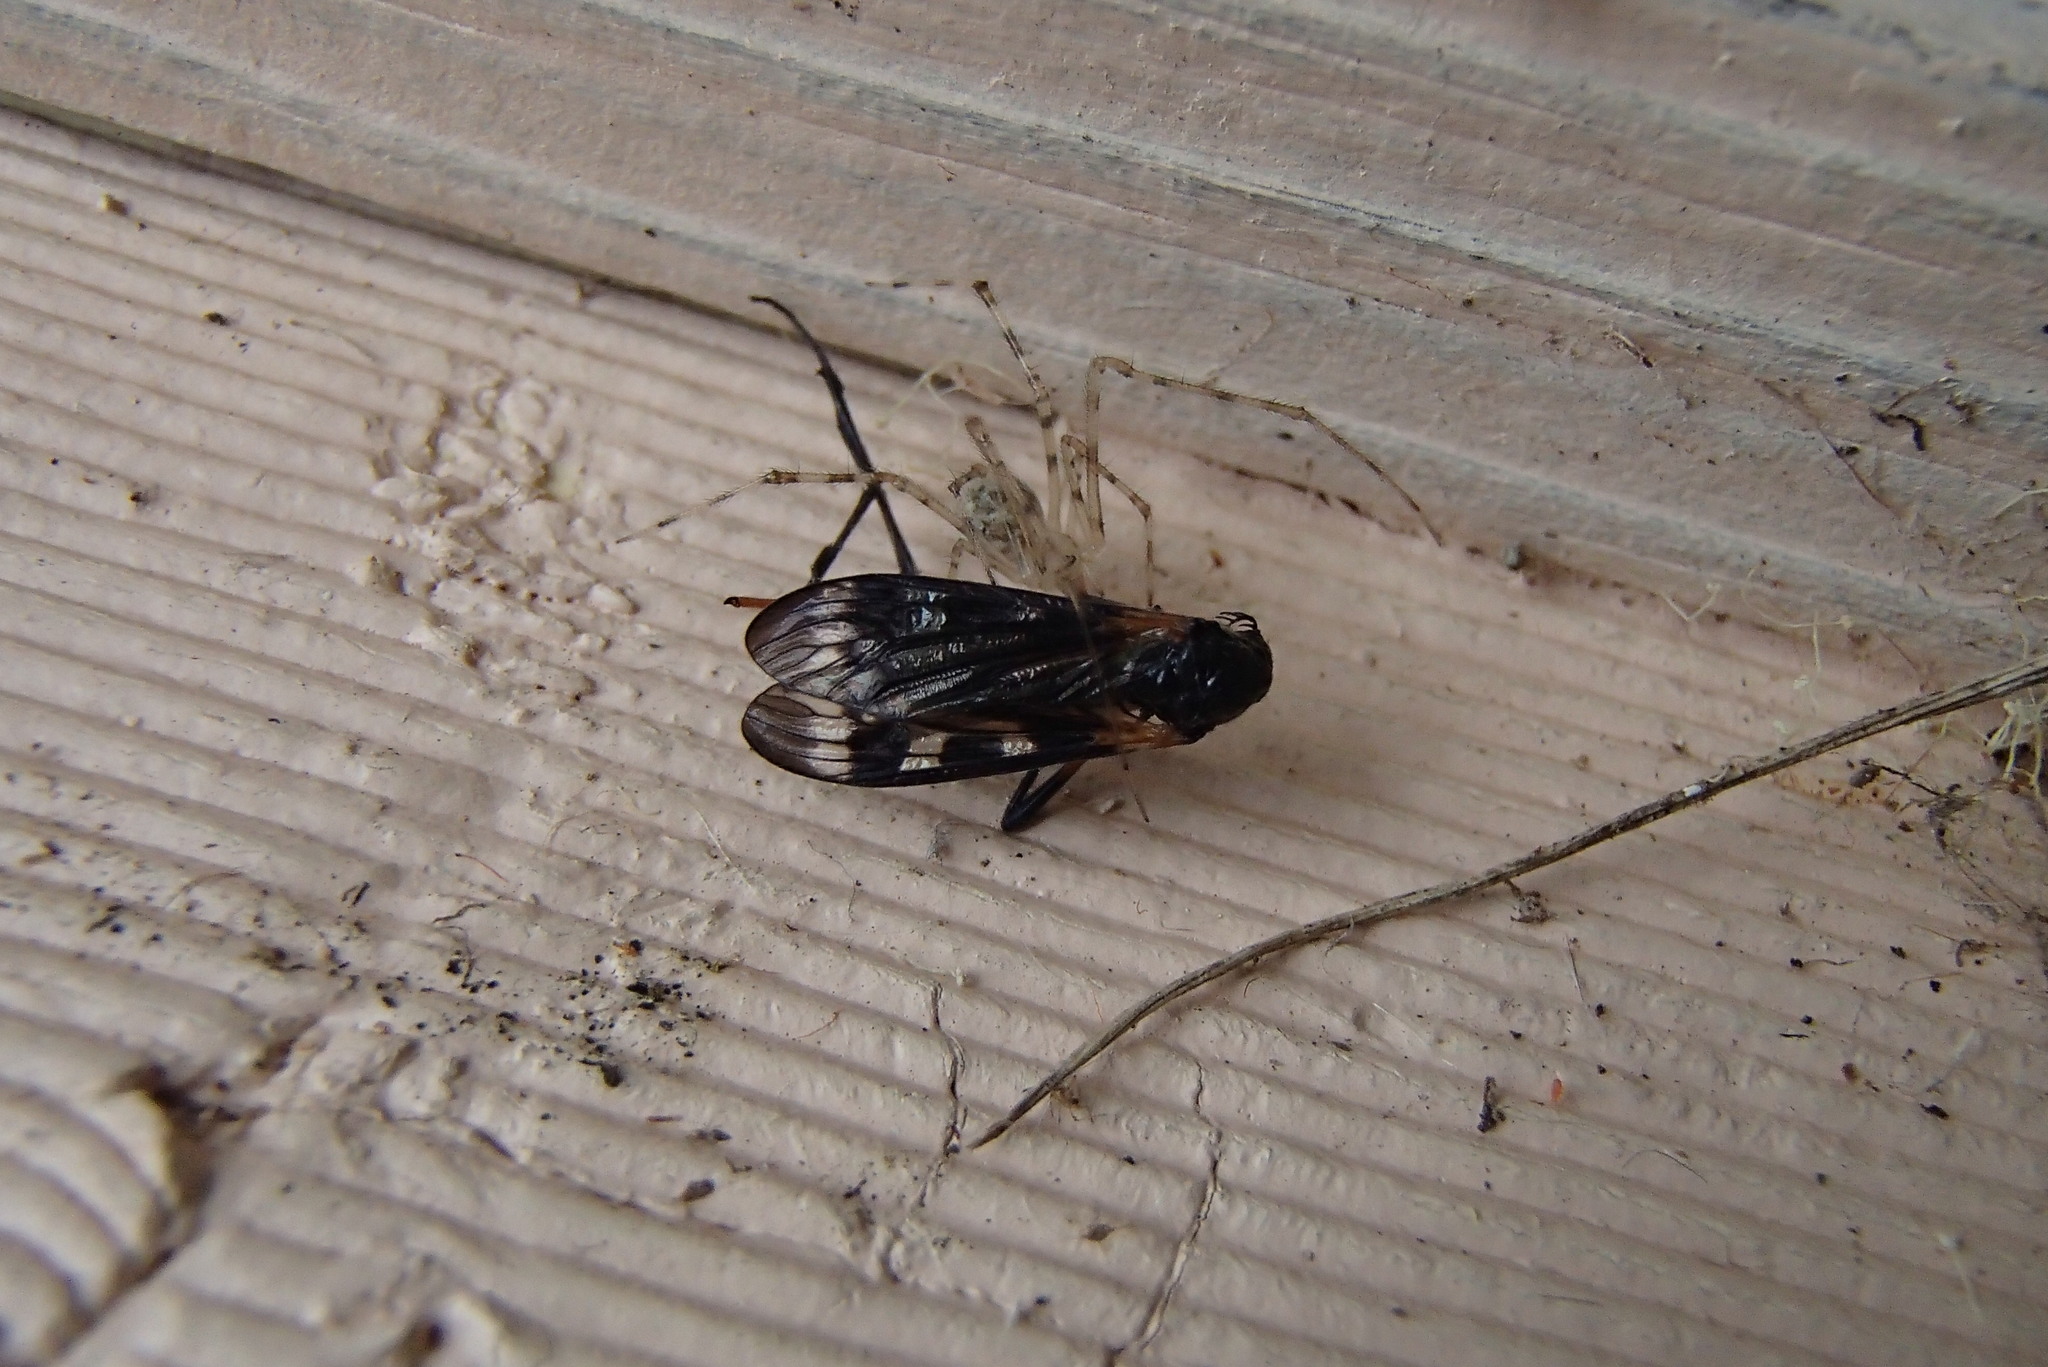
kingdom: Animalia
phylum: Arthropoda
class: Arachnida
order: Araneae
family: Theridiidae
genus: Cryptachaea
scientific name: Cryptachaea gigantipes
